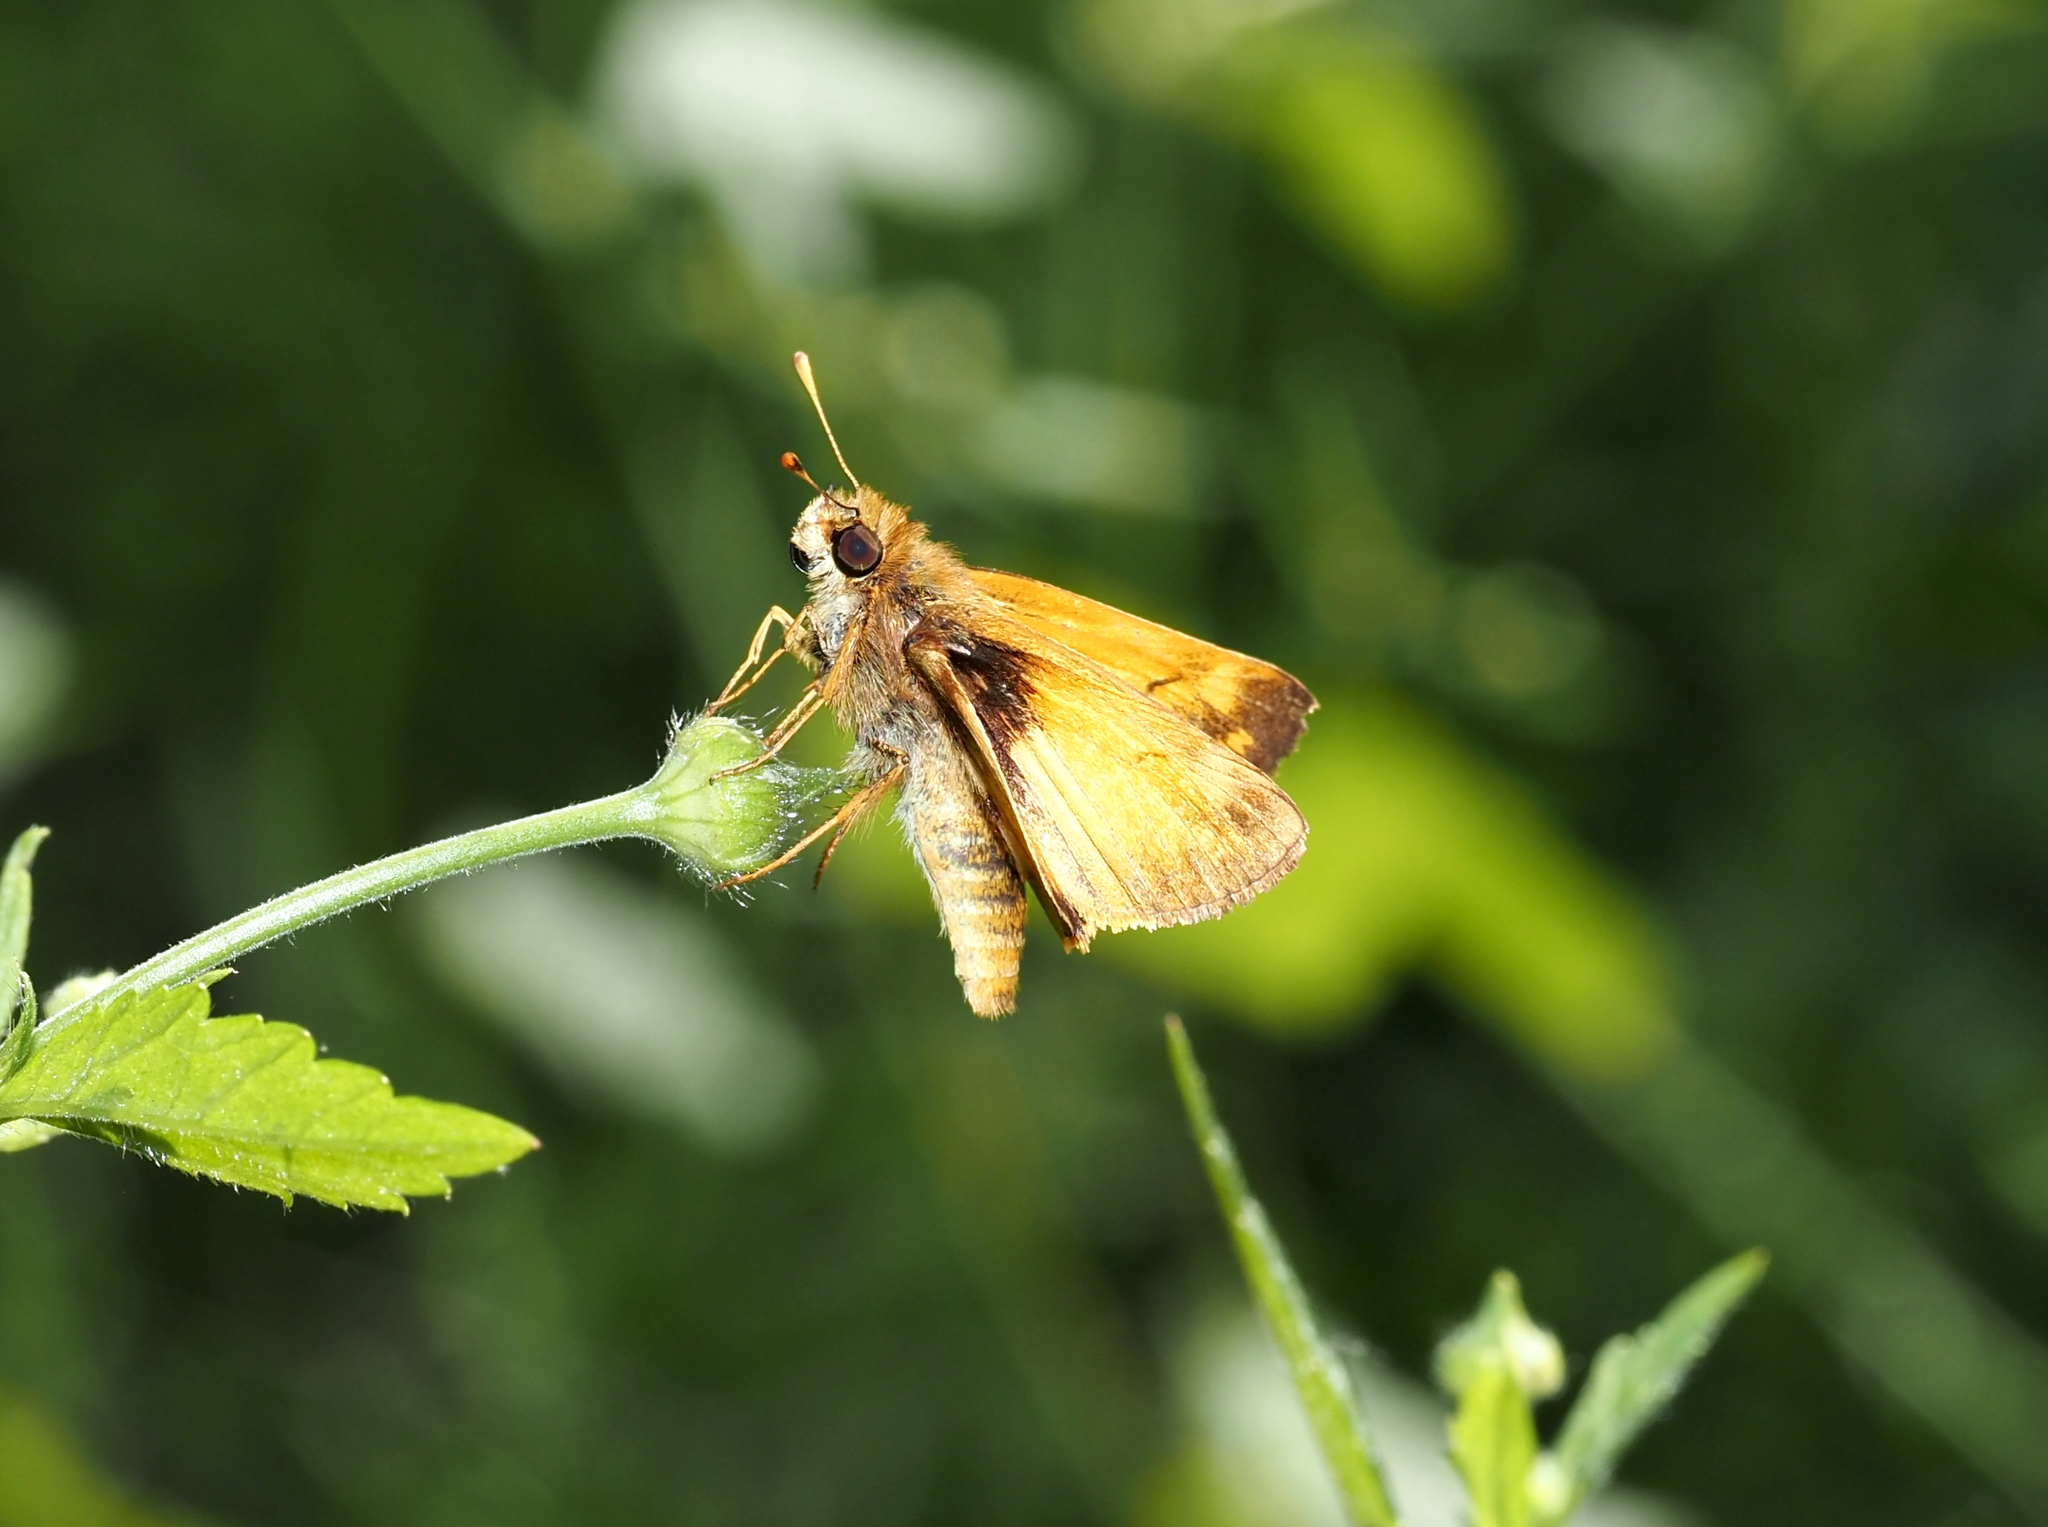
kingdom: Animalia
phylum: Arthropoda
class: Insecta
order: Lepidoptera
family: Hesperiidae
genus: Lon
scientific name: Lon zabulon
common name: Zabulon skipper
